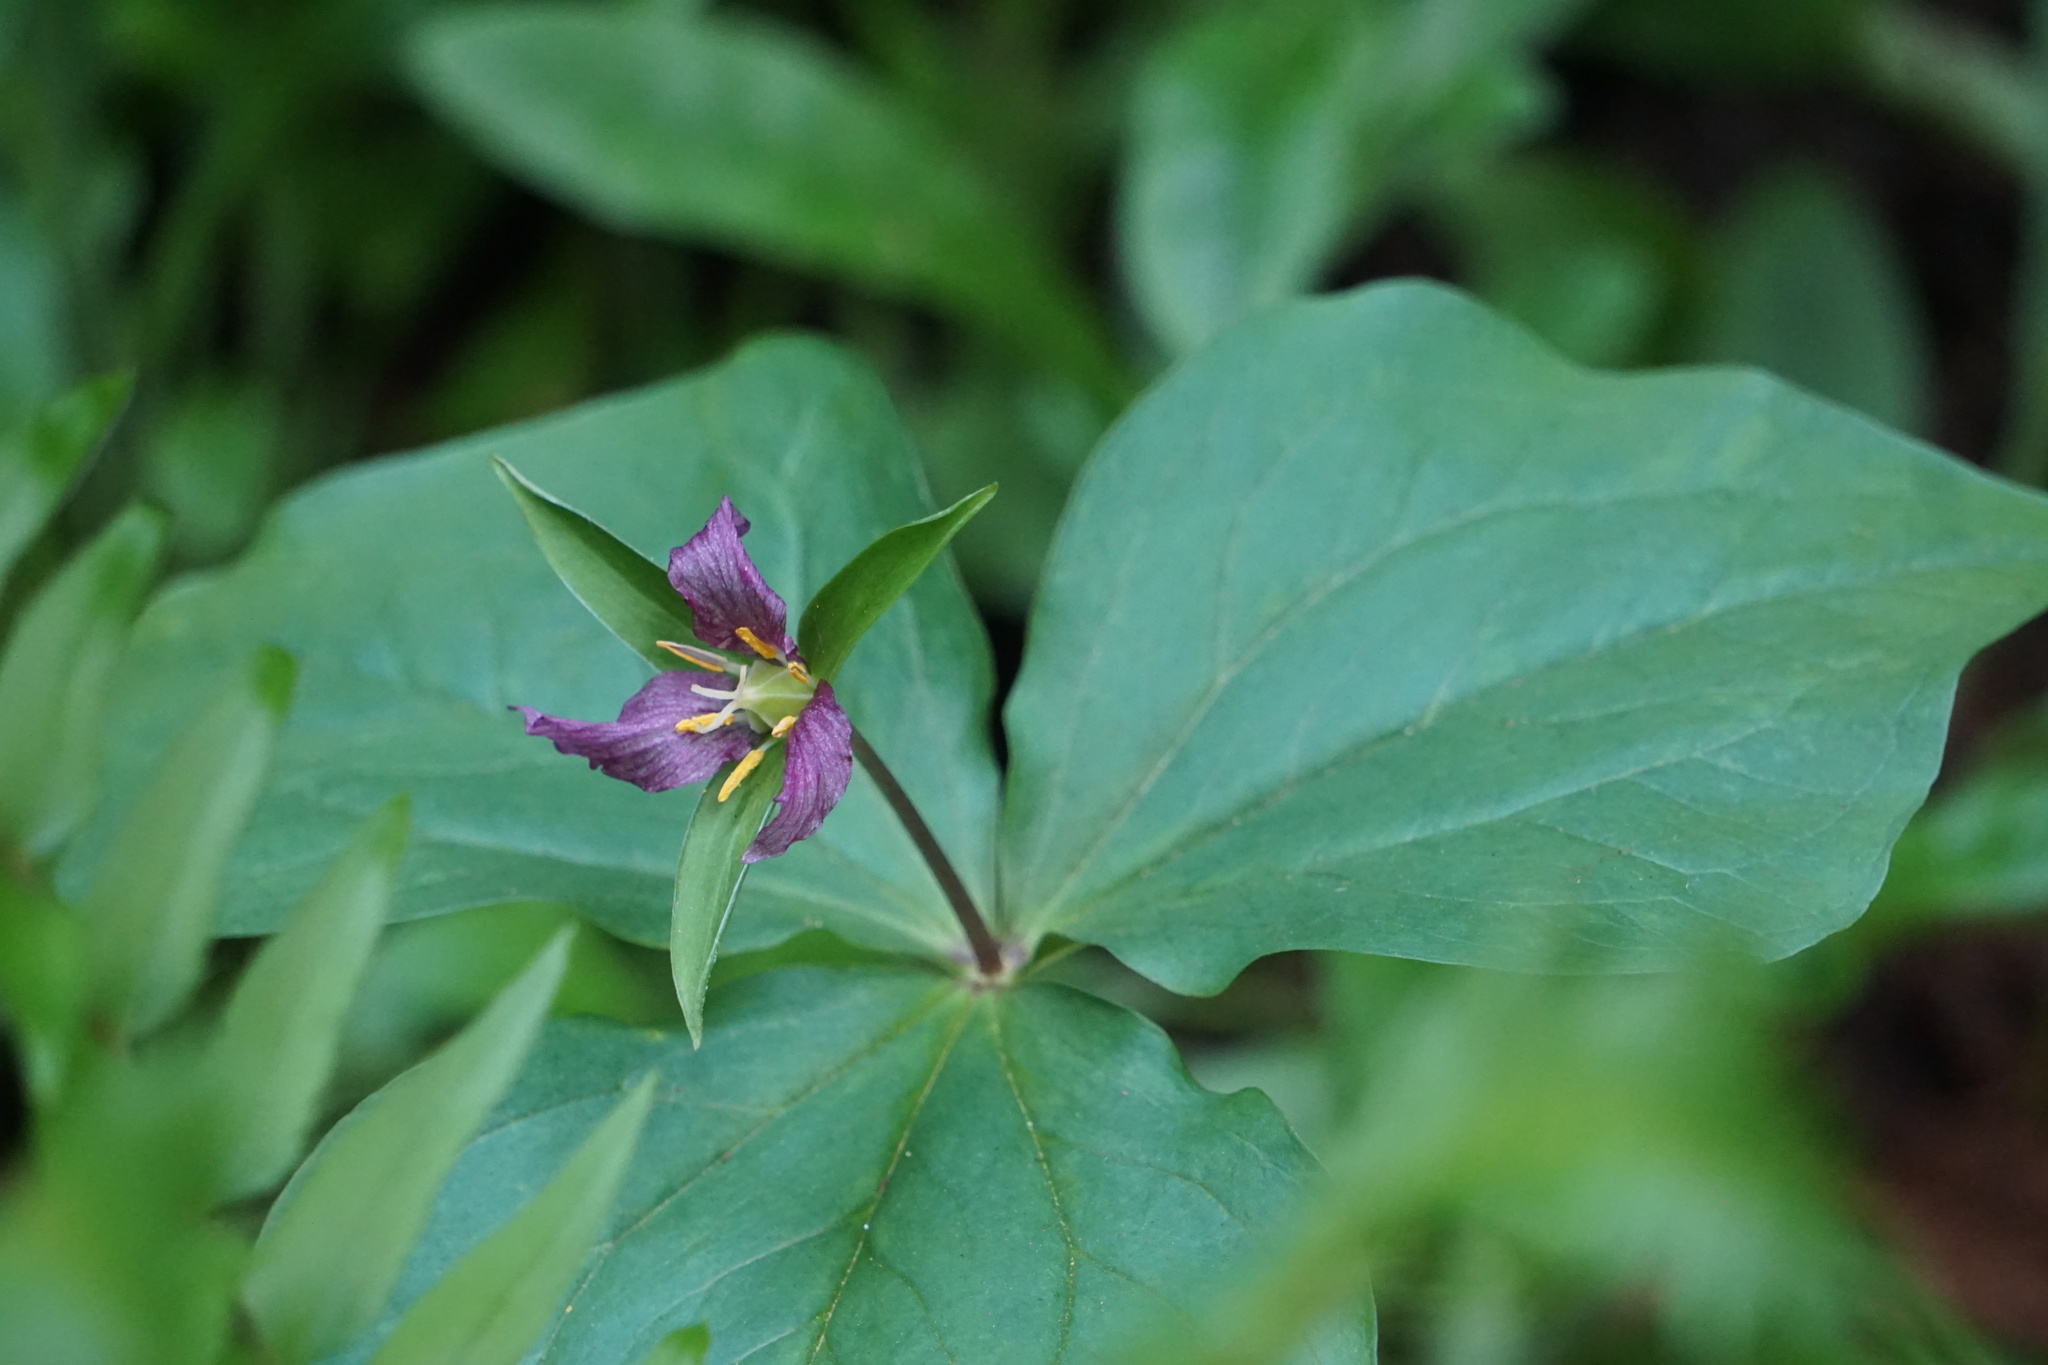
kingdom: Plantae
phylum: Tracheophyta
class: Liliopsida
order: Liliales
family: Melanthiaceae
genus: Trillium
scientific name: Trillium ovatum
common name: Pacific trillium
